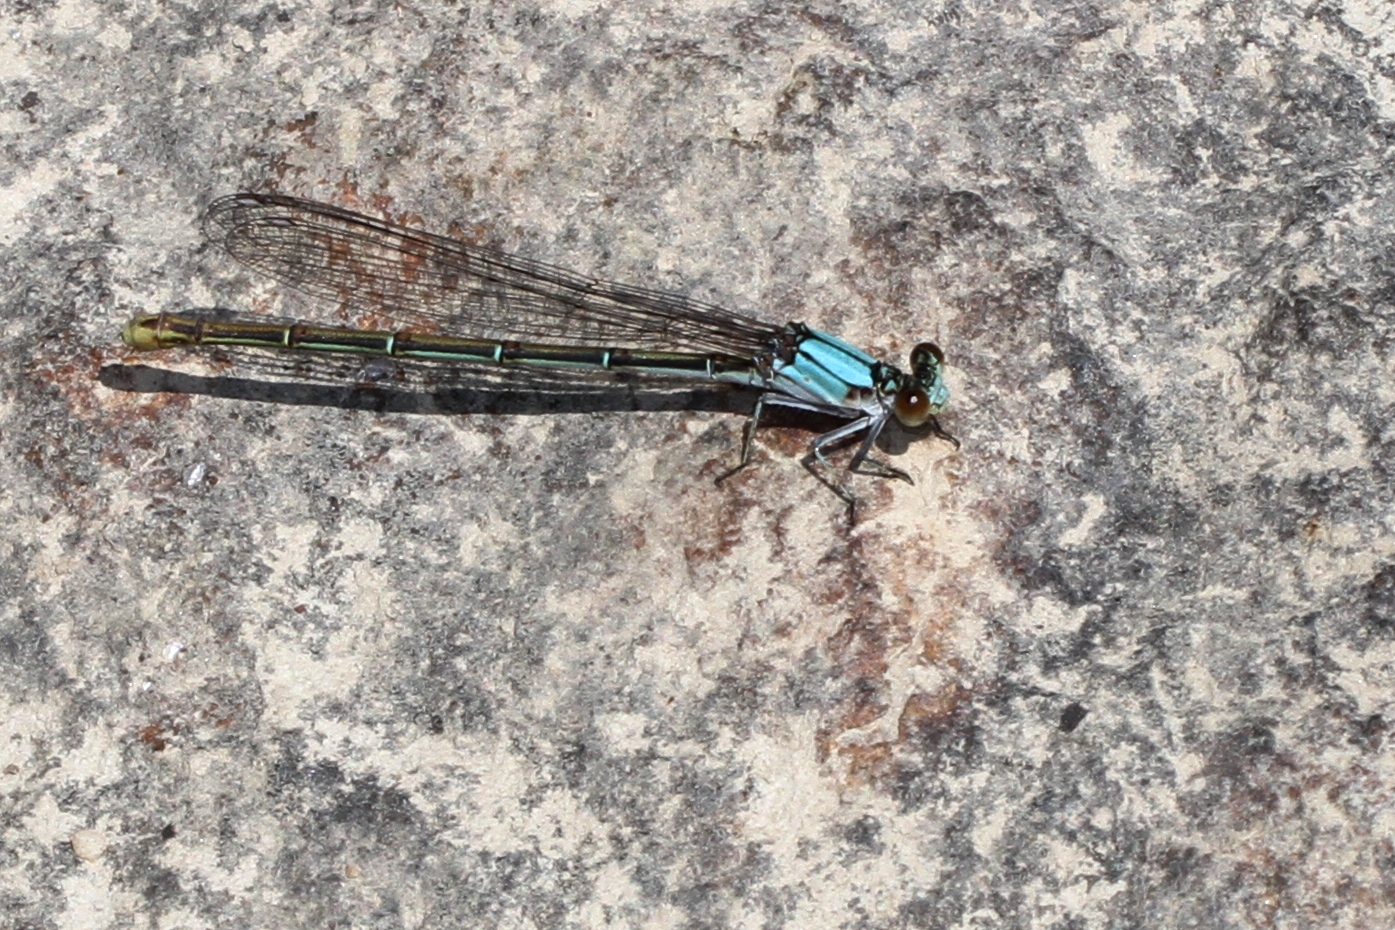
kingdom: Animalia
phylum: Arthropoda
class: Insecta
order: Odonata
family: Coenagrionidae
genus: Argia
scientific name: Argia moesta
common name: Powdered dancer
